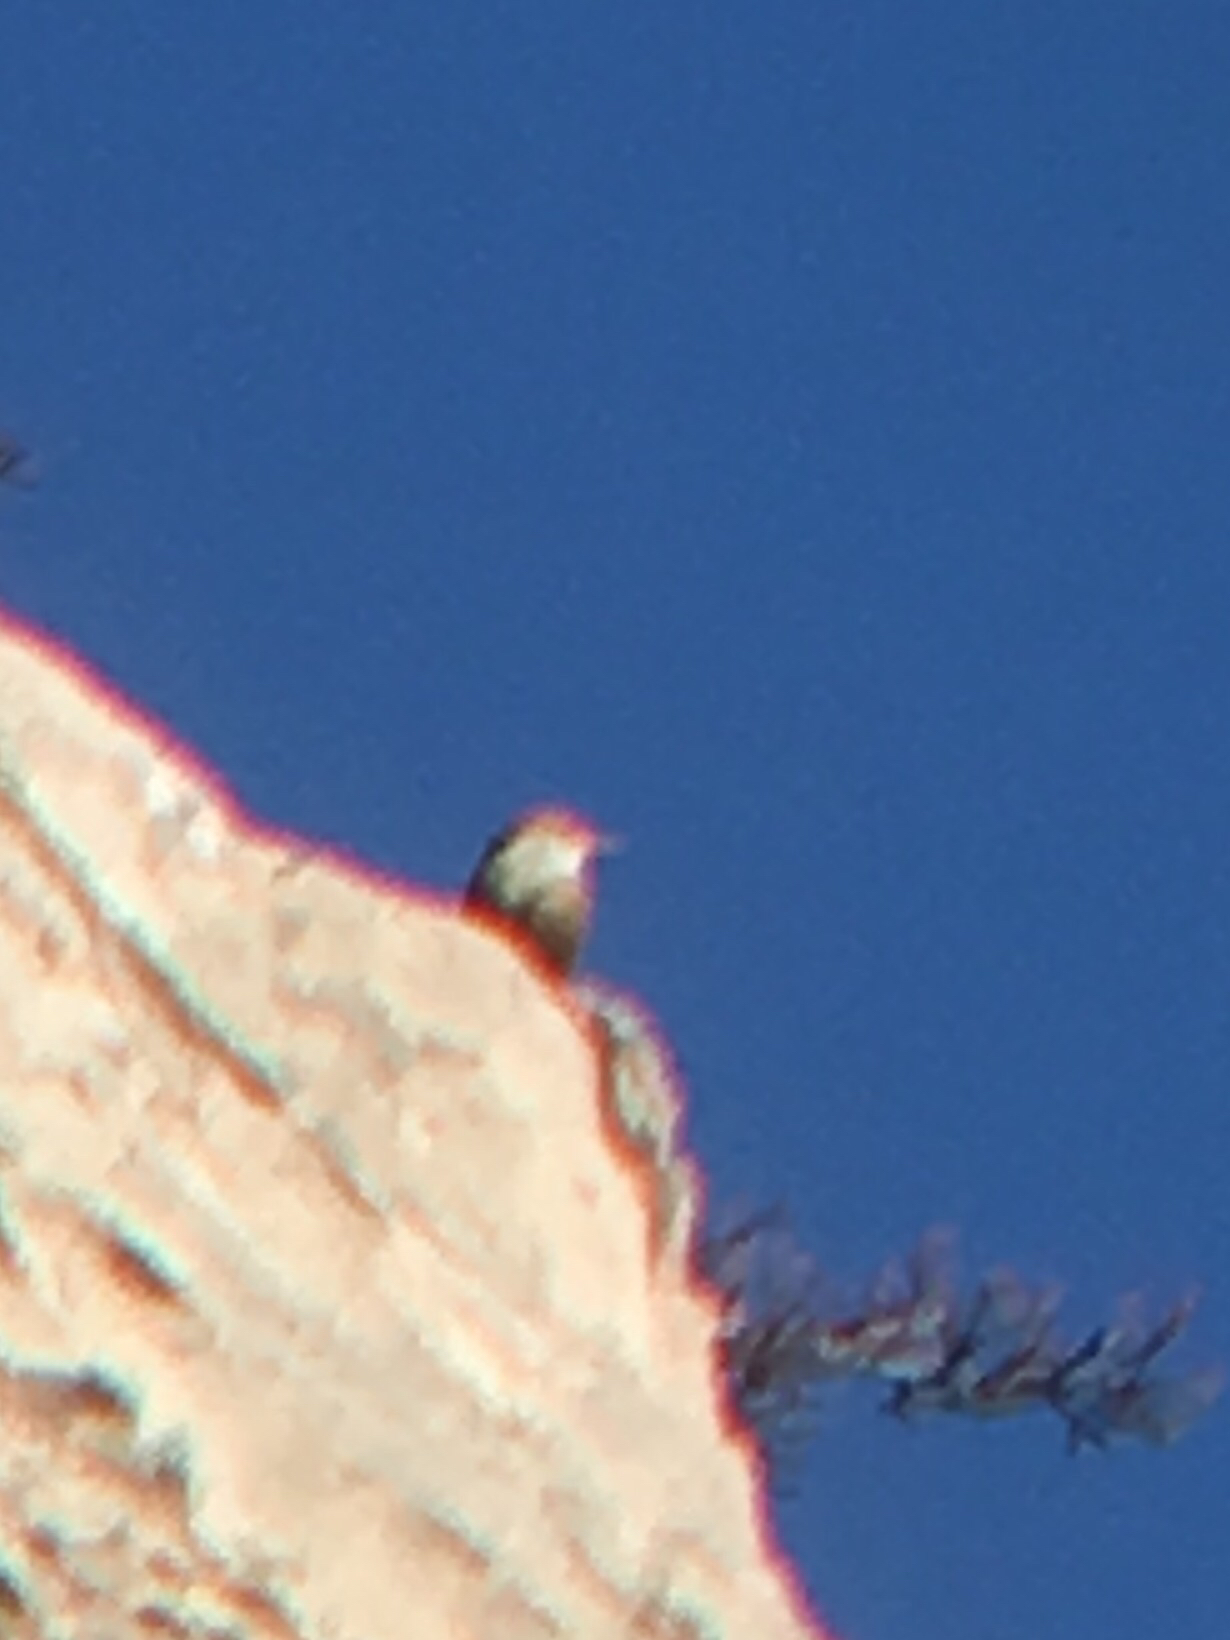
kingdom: Animalia
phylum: Chordata
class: Aves
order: Passeriformes
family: Troglodytidae
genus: Catherpes
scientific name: Catherpes mexicanus
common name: Canyon wren
